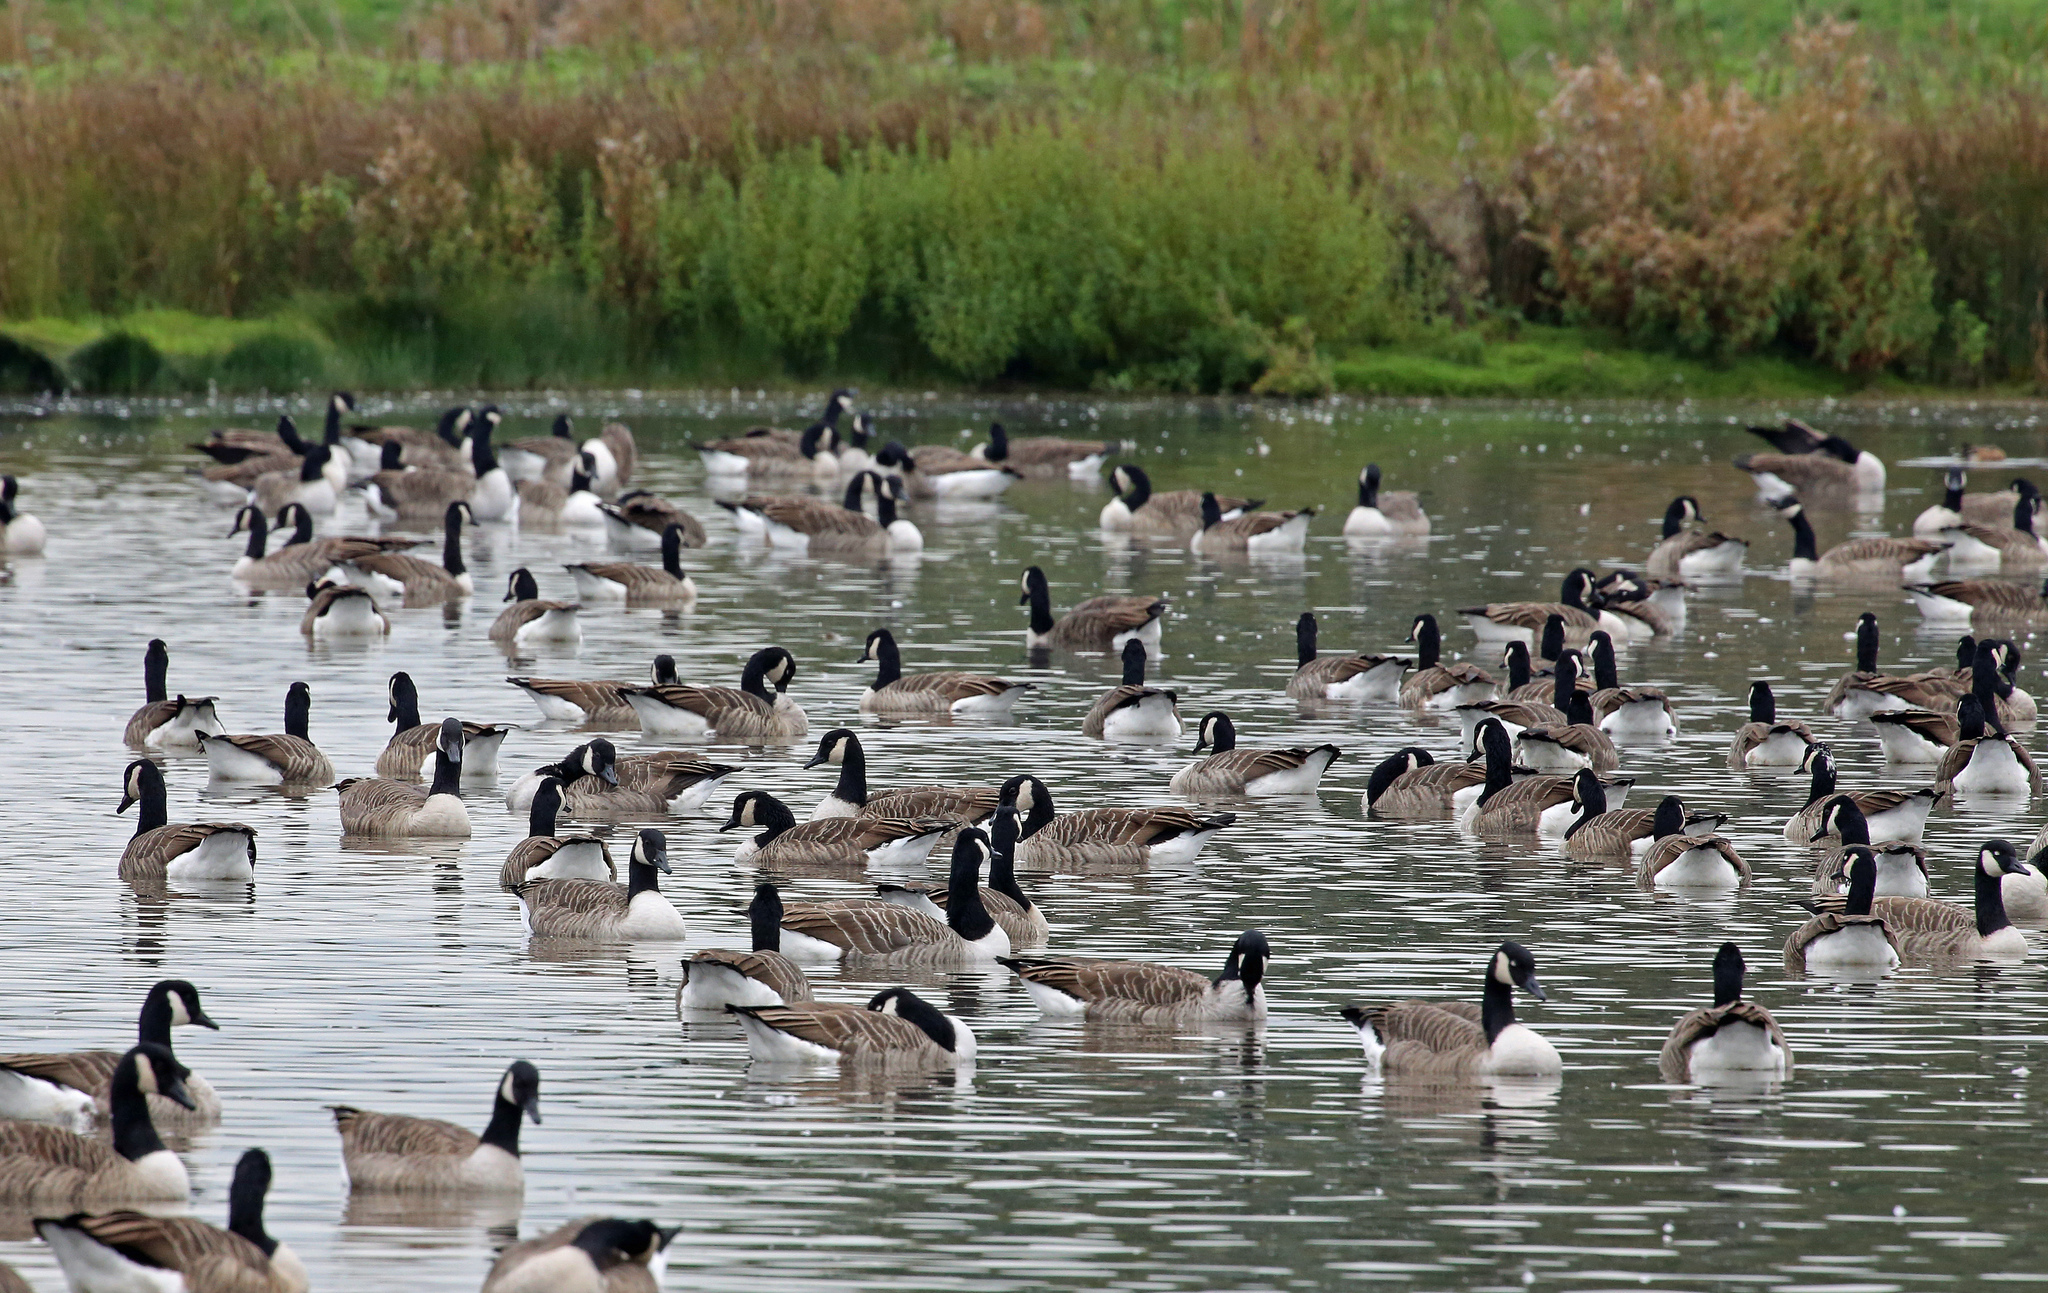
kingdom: Animalia
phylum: Chordata
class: Aves
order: Anseriformes
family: Anatidae
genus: Branta
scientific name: Branta canadensis
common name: Canada goose
